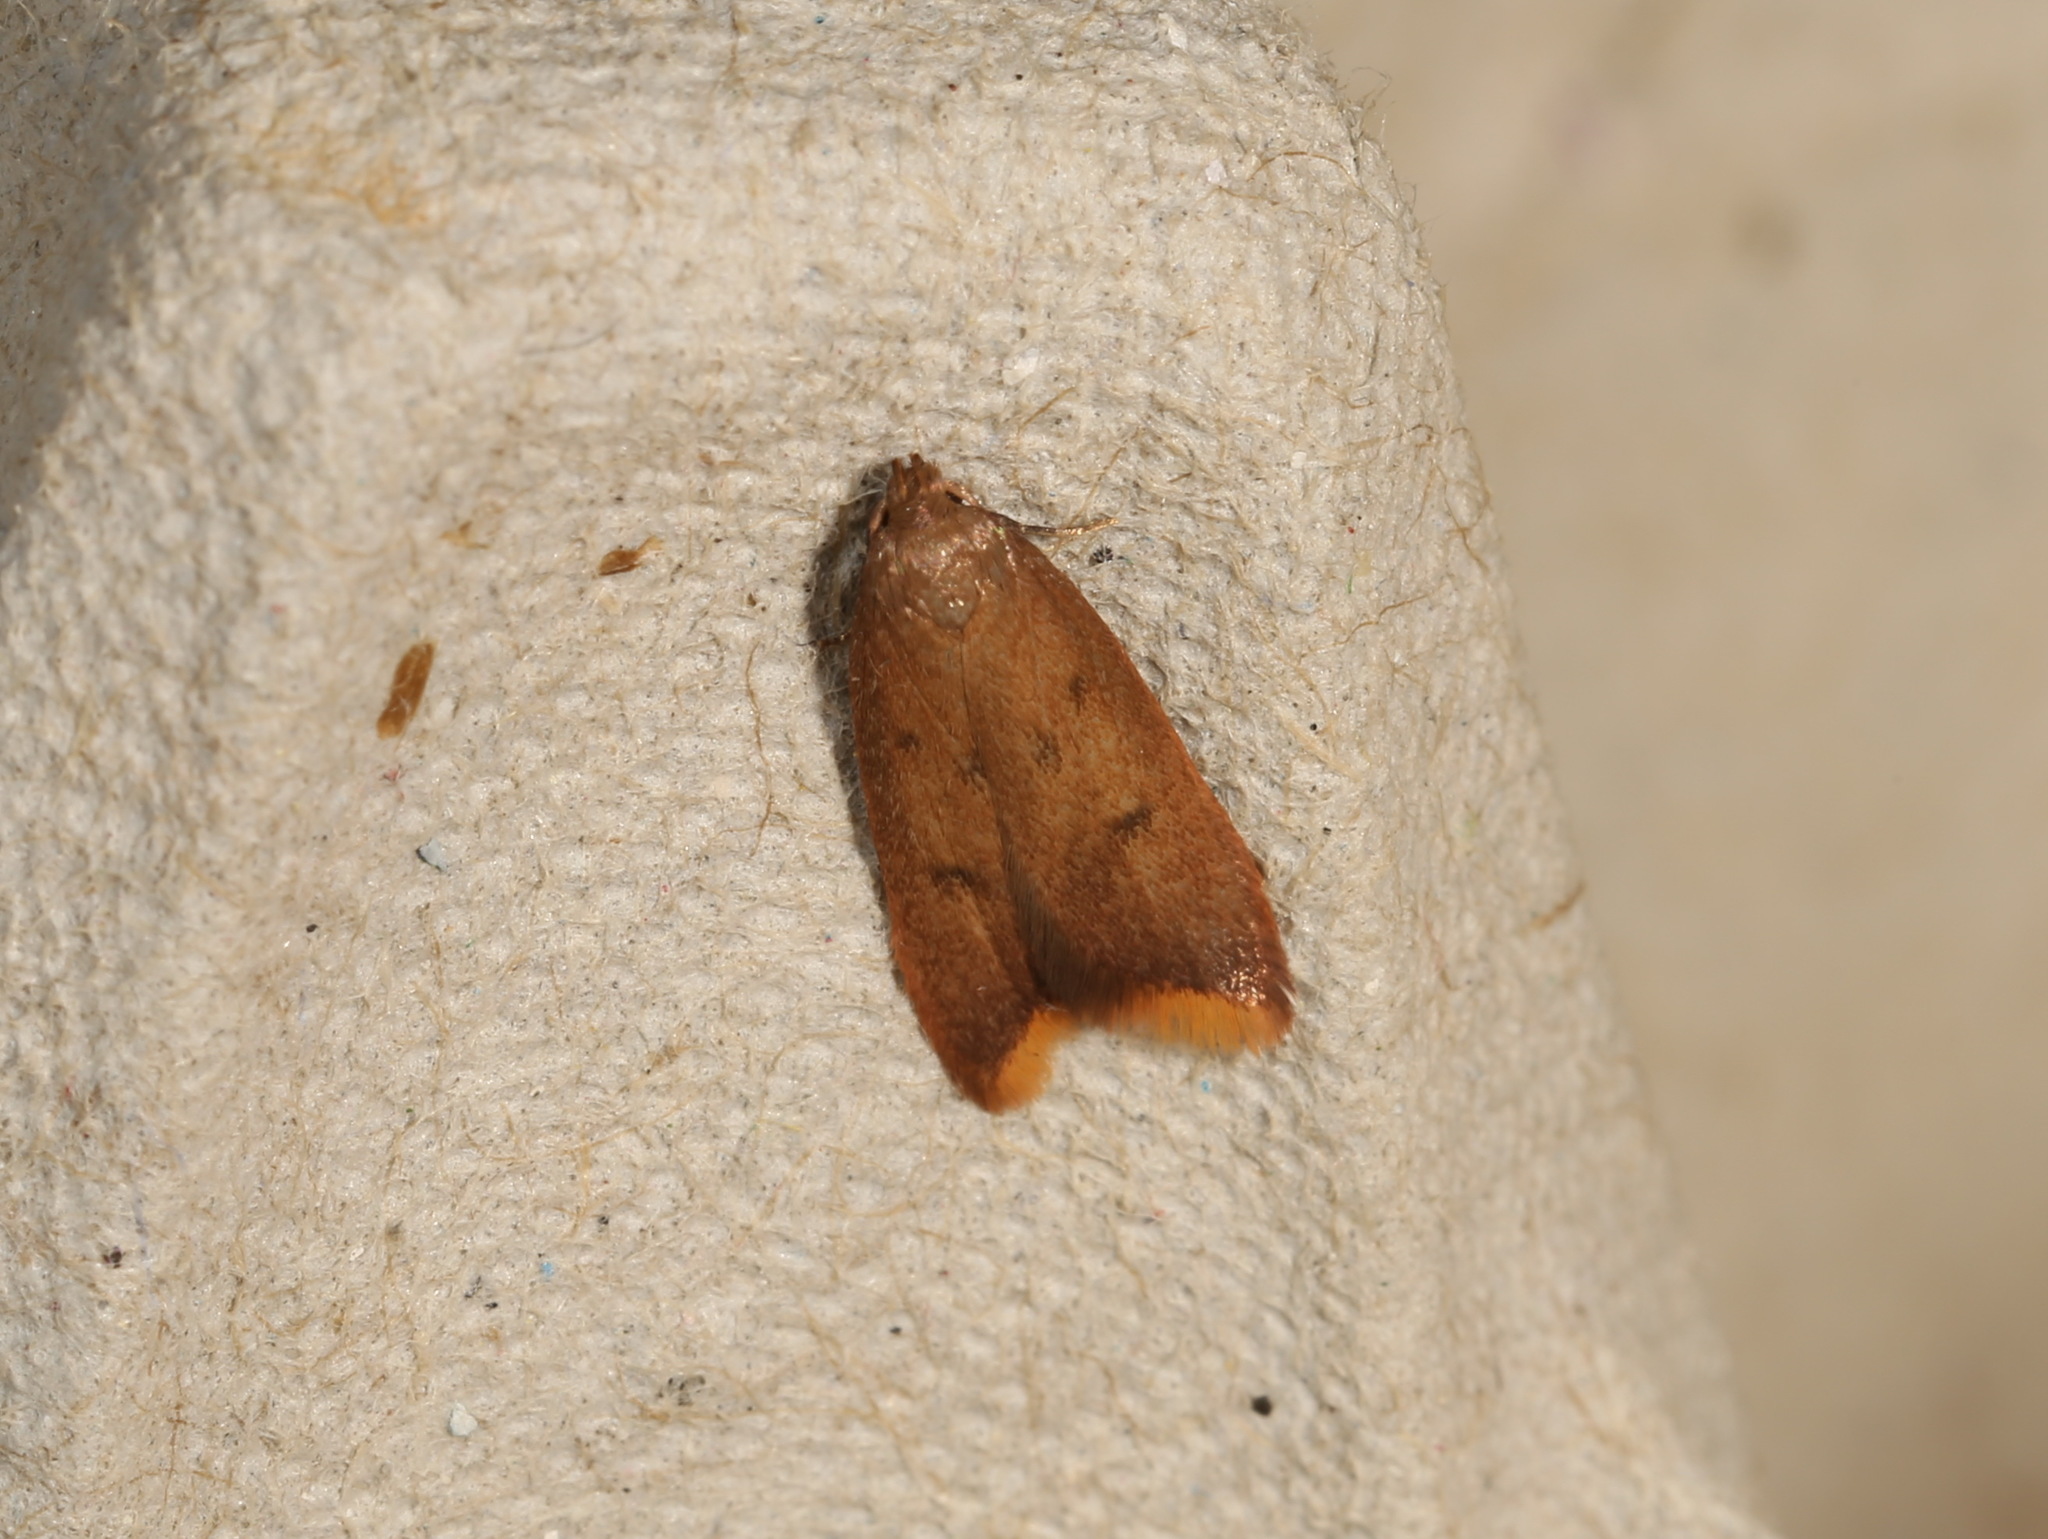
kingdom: Animalia
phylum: Arthropoda
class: Insecta
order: Lepidoptera
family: Oecophoridae
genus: Tachystola
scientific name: Tachystola acroxantha
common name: Ruddy streak
